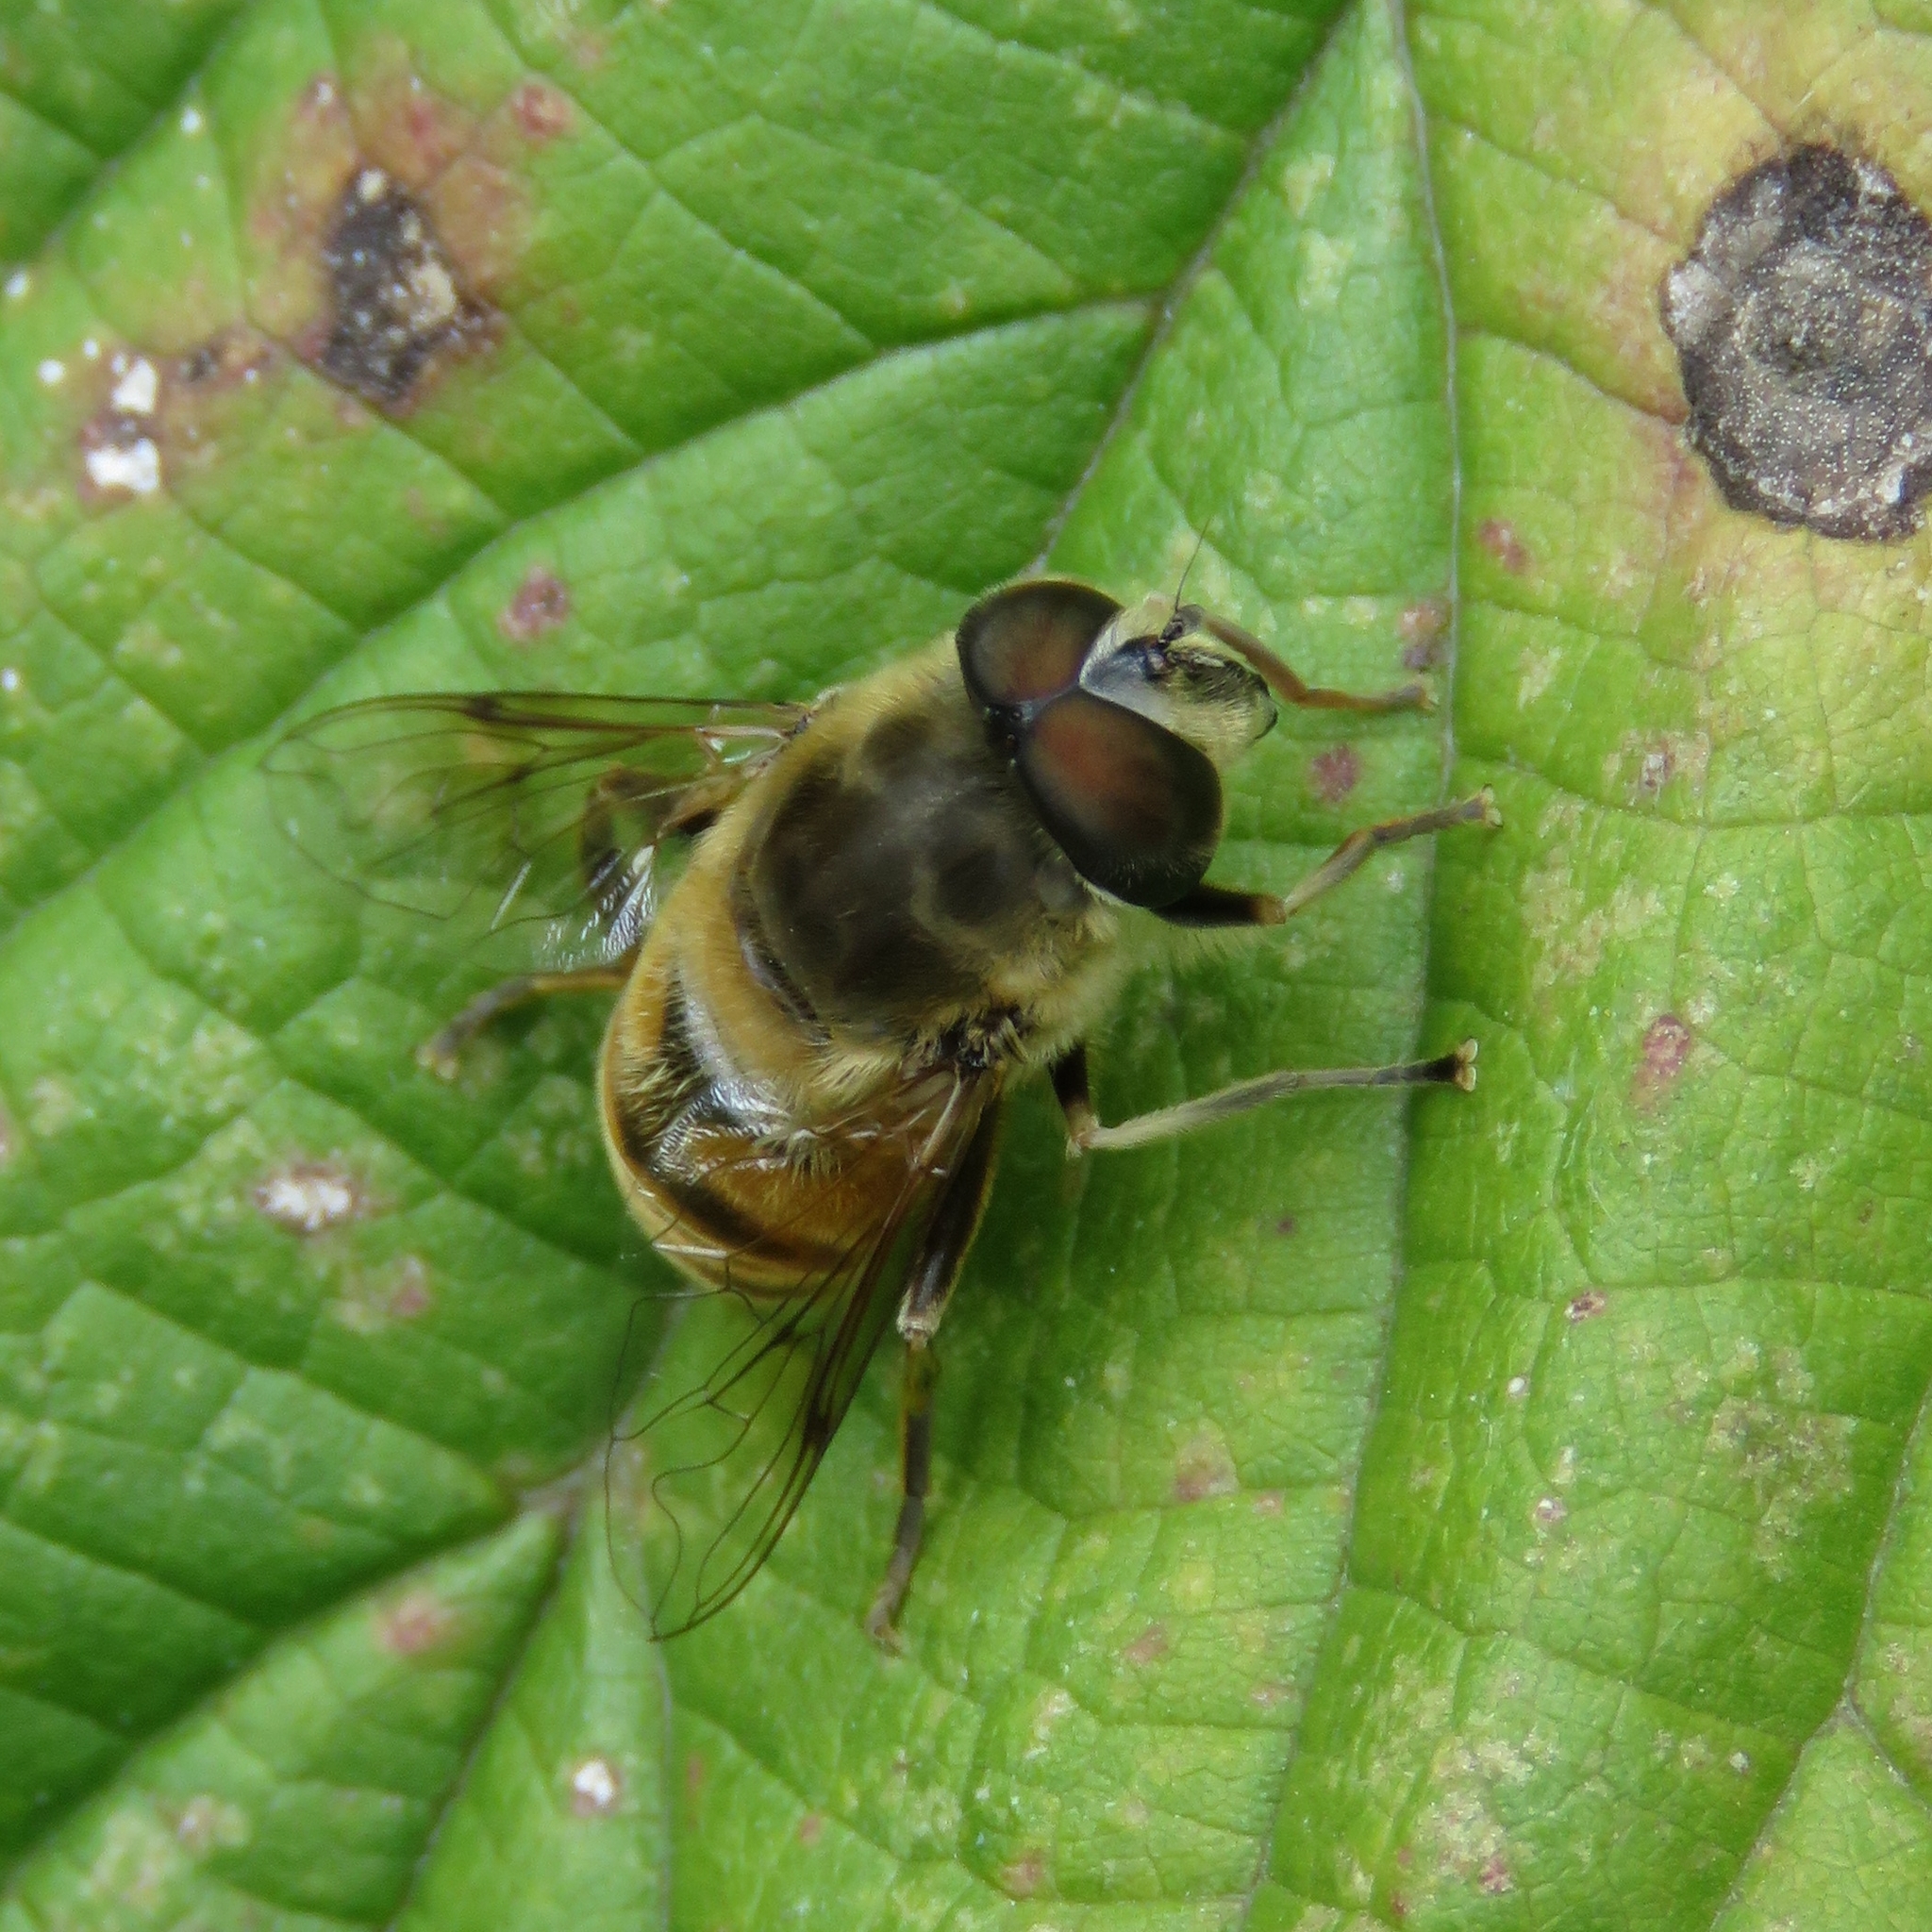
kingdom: Animalia
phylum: Arthropoda
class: Insecta
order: Diptera
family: Syrphidae
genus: Eristalis
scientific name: Eristalis tenax
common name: Drone fly
